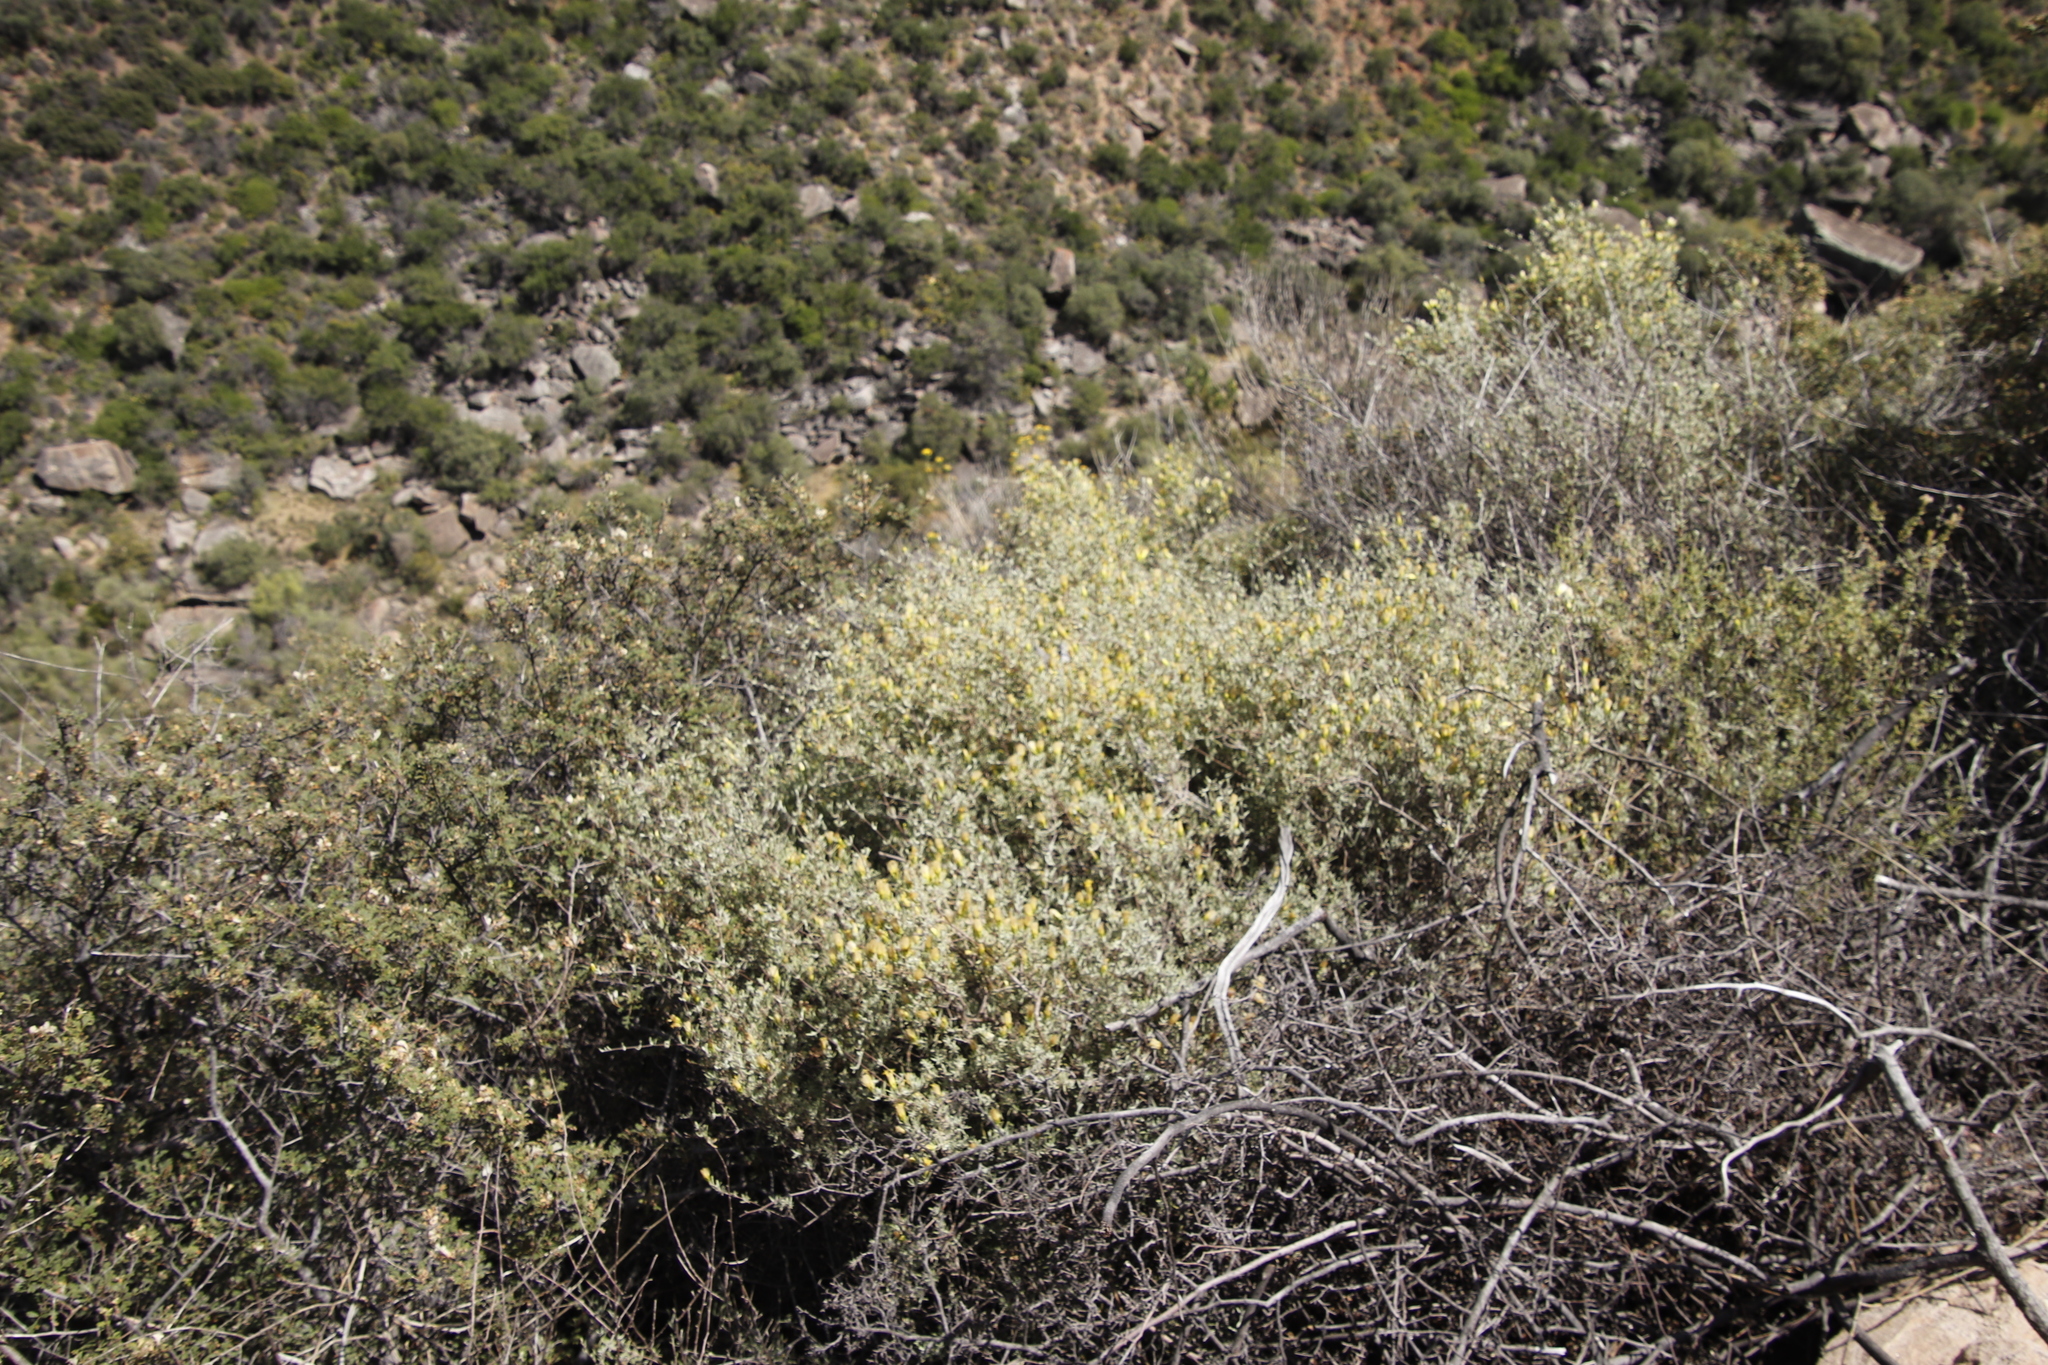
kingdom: Plantae
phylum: Tracheophyta
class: Magnoliopsida
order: Asterales
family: Asteraceae
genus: Pteronia
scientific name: Pteronia incana
